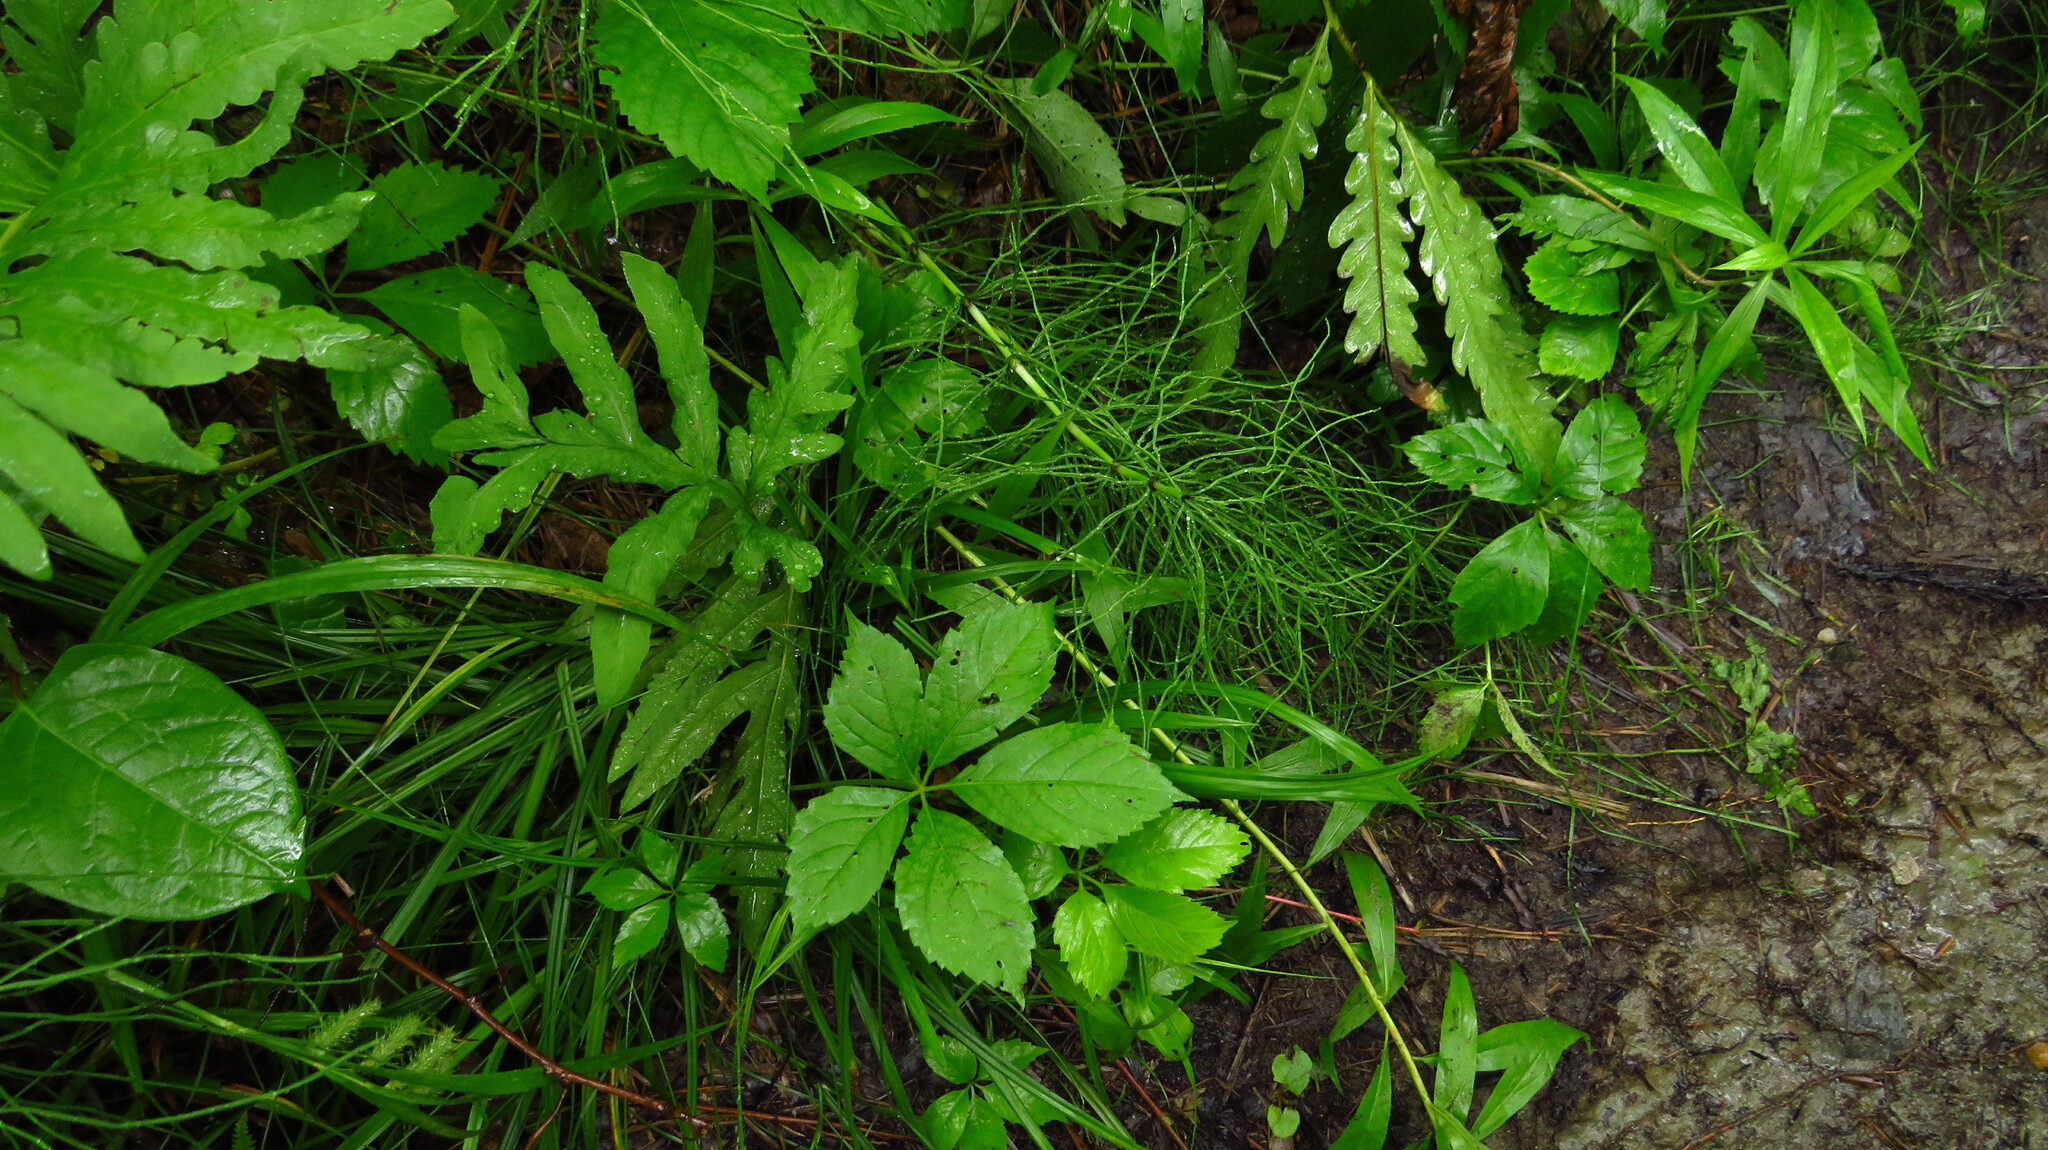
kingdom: Plantae
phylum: Tracheophyta
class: Polypodiopsida
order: Equisetales
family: Equisetaceae
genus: Equisetum
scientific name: Equisetum arvense
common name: Field horsetail
